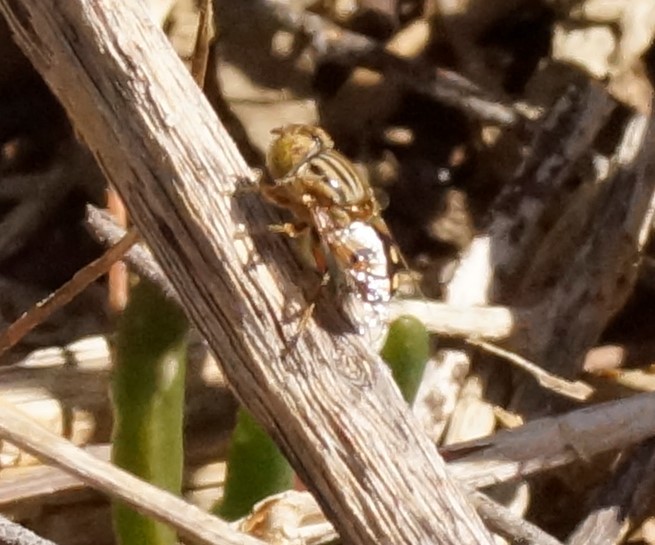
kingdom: Animalia
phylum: Arthropoda
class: Insecta
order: Diptera
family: Syrphidae
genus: Eristalinus
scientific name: Eristalinus punctulatus
